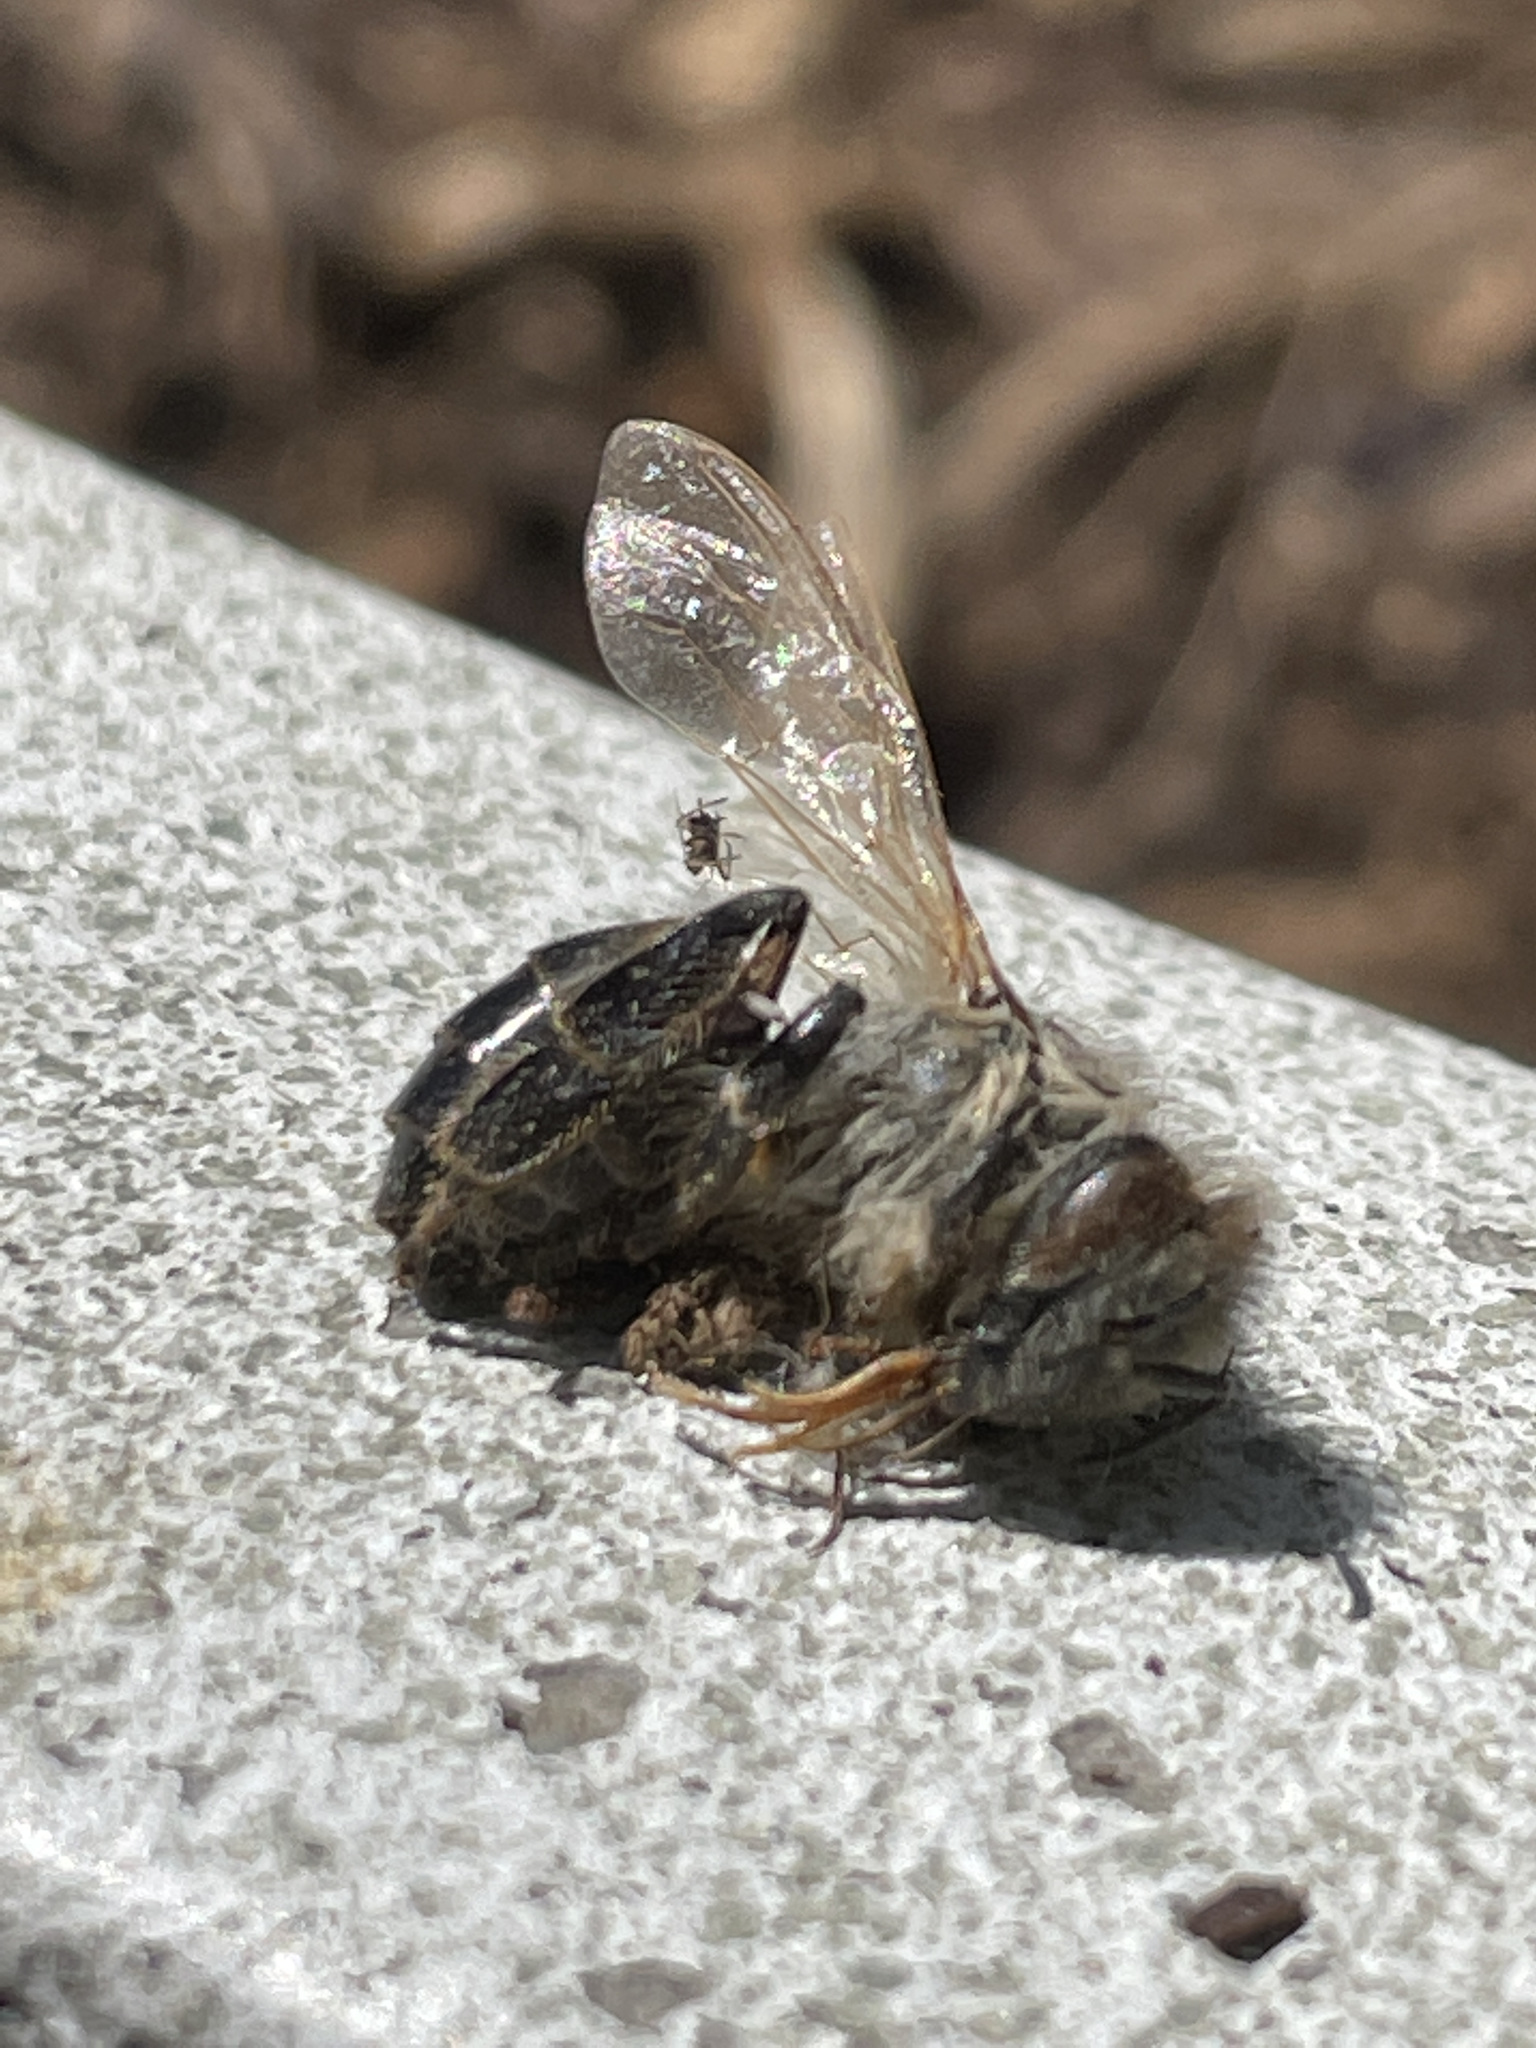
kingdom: Animalia
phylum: Arthropoda
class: Insecta
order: Hymenoptera
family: Apidae
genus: Apis
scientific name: Apis mellifera
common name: Honey bee
